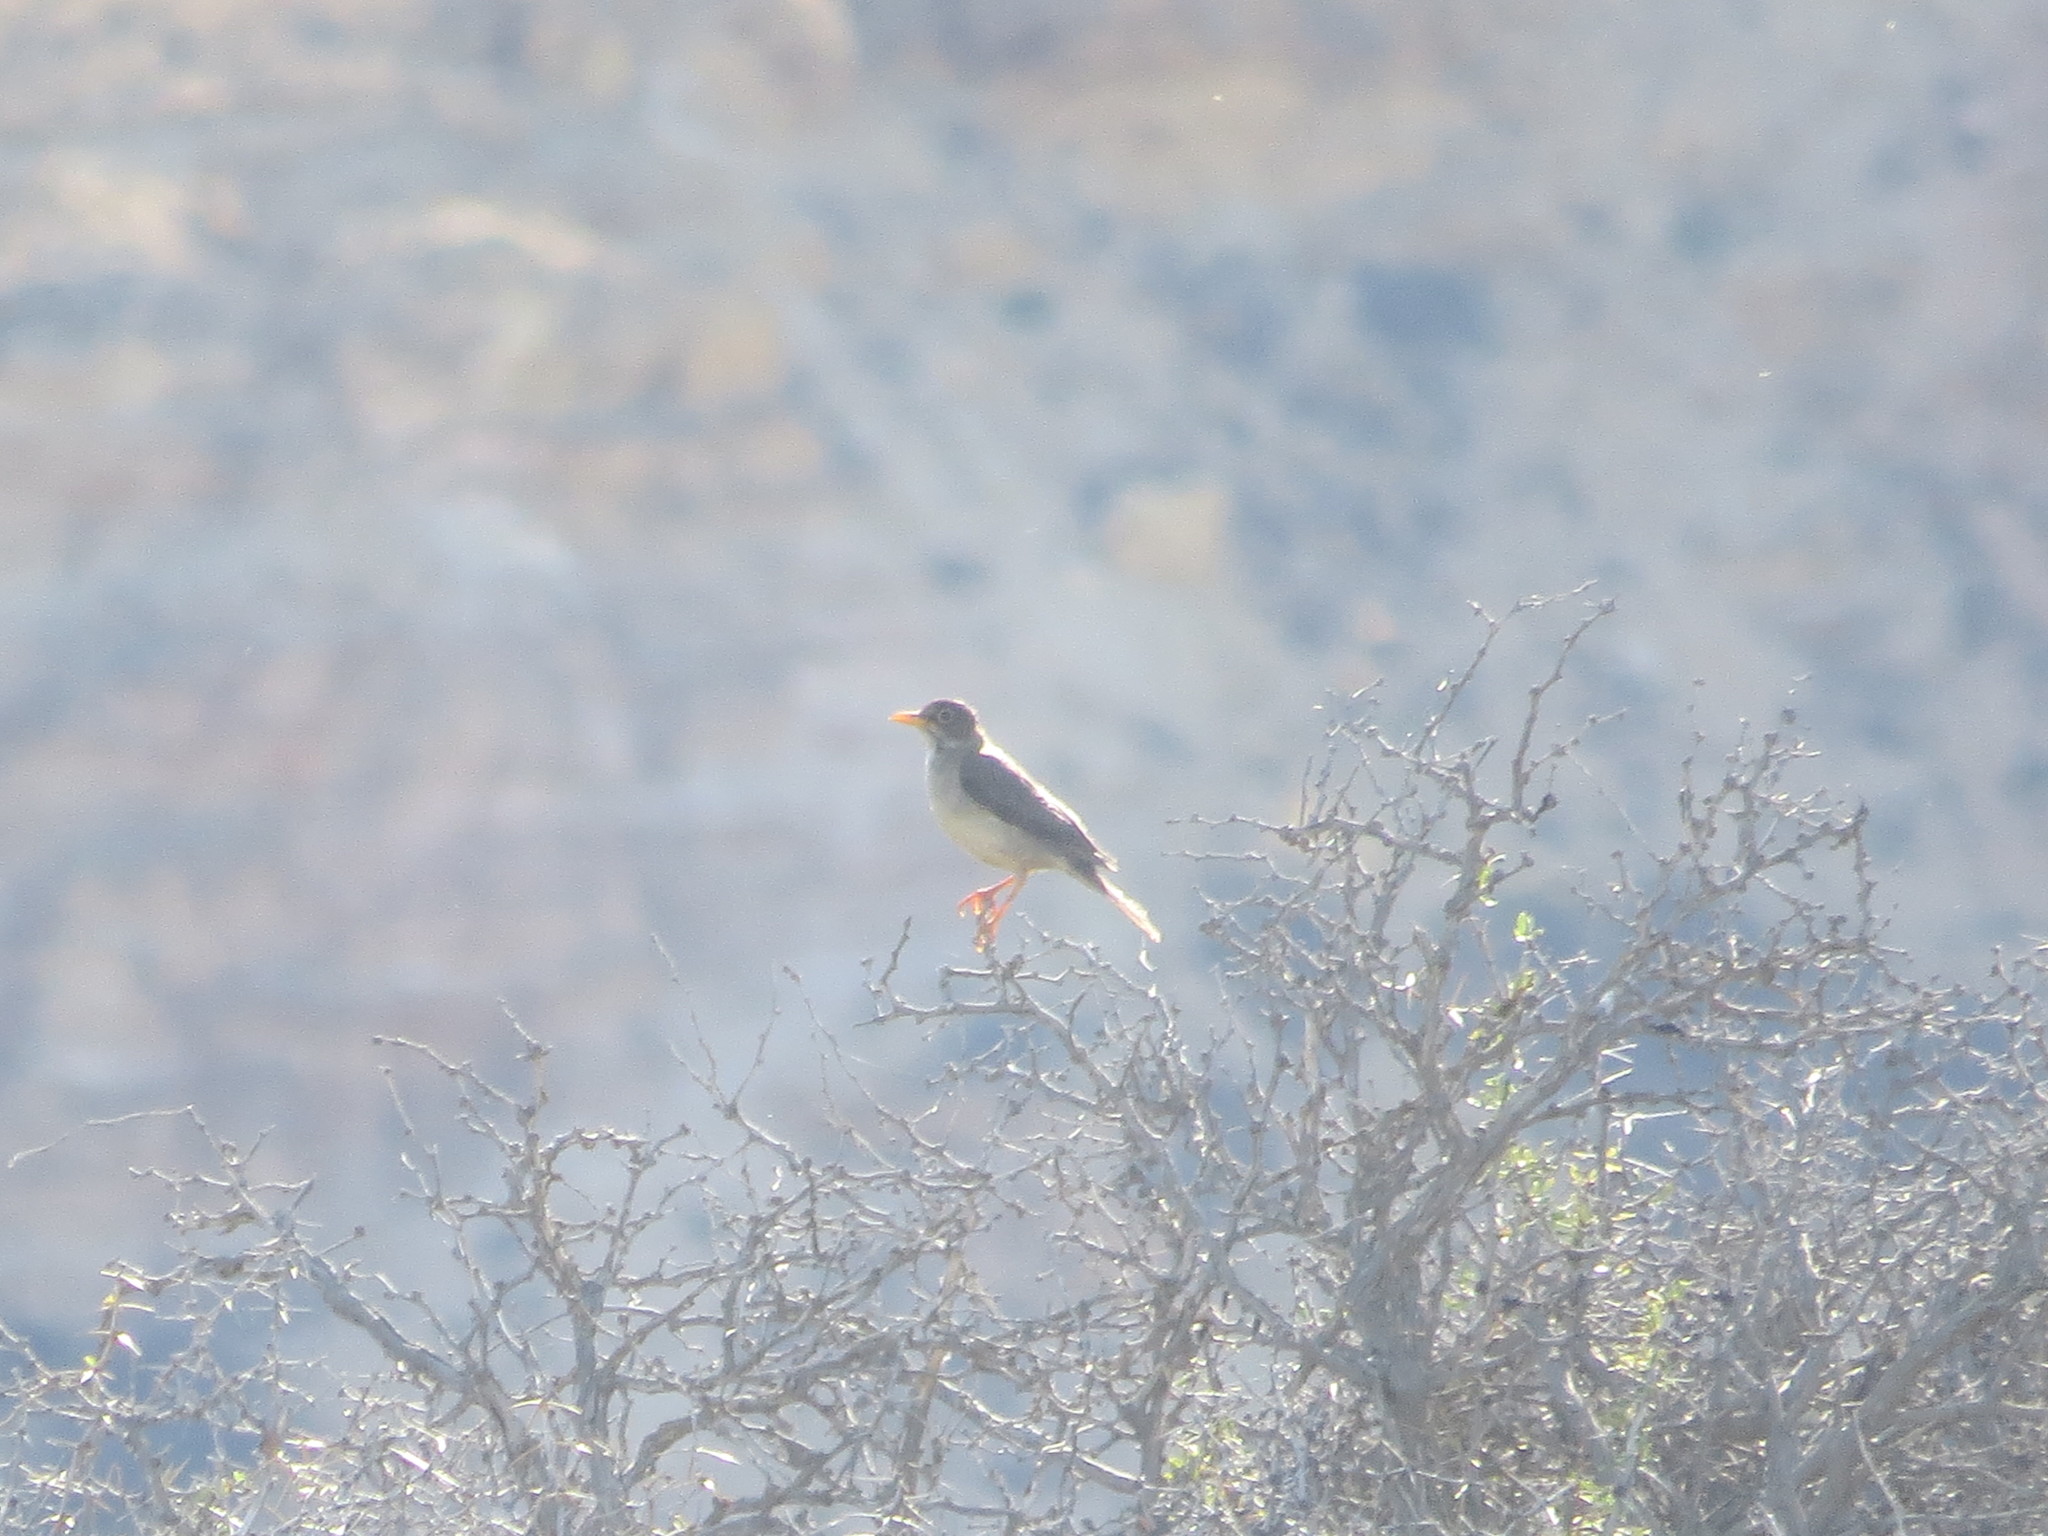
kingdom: Animalia
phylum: Chordata
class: Aves
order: Passeriformes
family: Turdidae
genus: Turdus
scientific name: Turdus falcklandii
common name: Austral thrush
